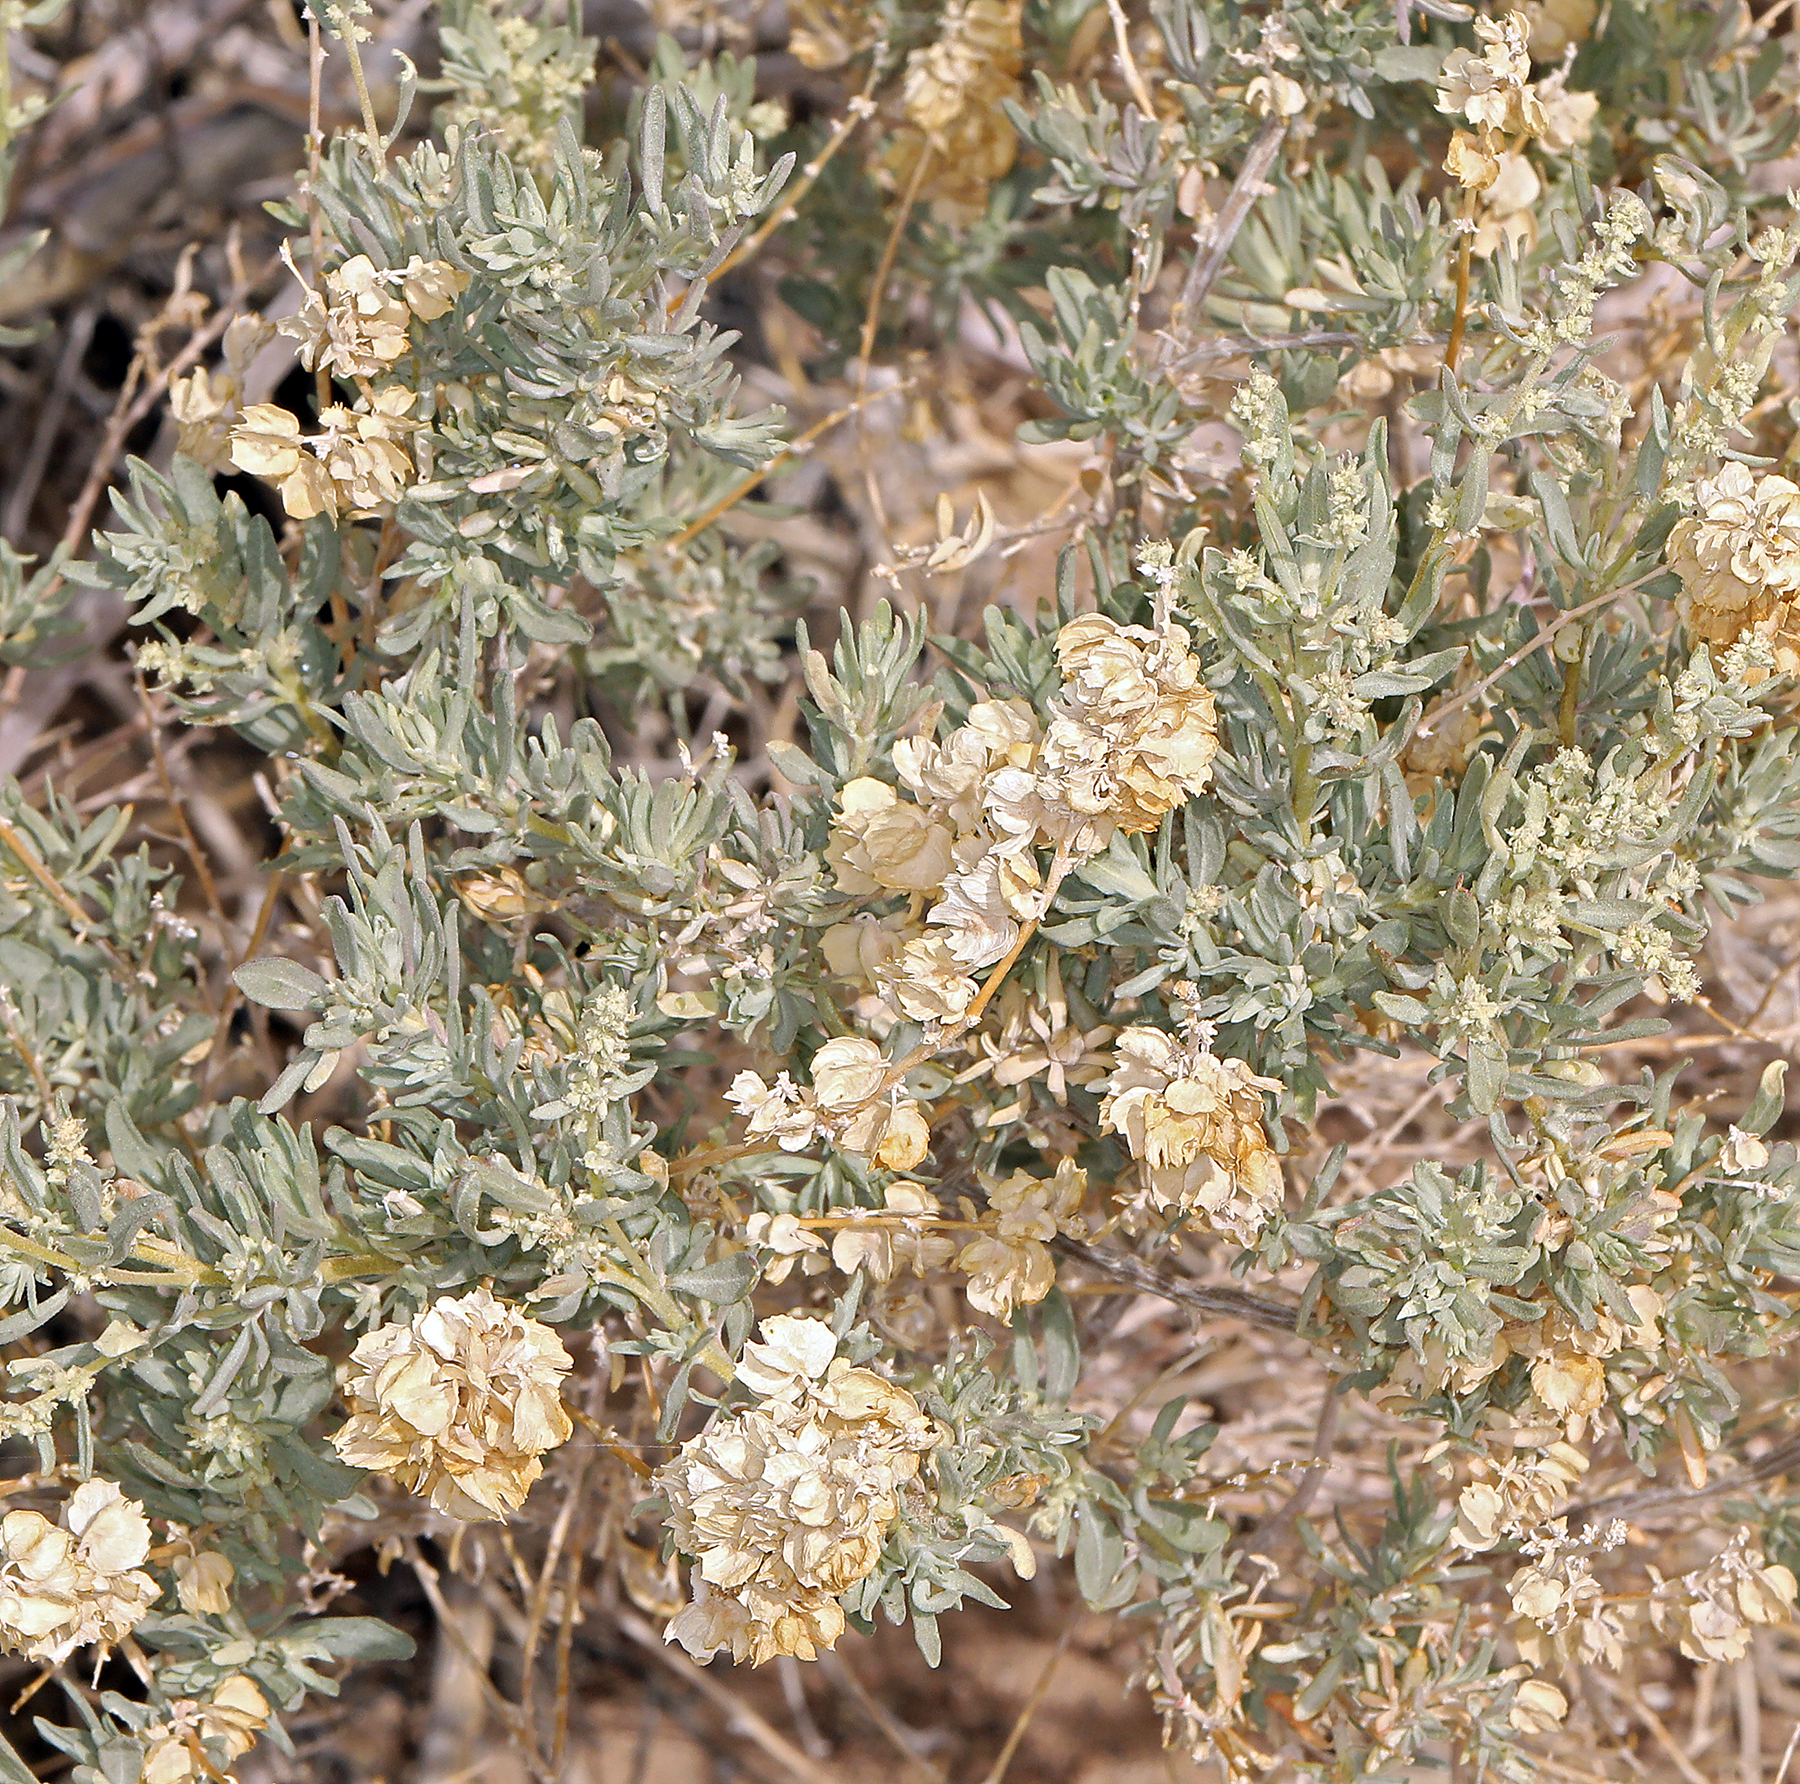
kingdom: Plantae
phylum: Tracheophyta
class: Magnoliopsida
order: Caryophyllales
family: Amaranthaceae
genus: Atriplex
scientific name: Atriplex canescens
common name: Four-wing saltbush
